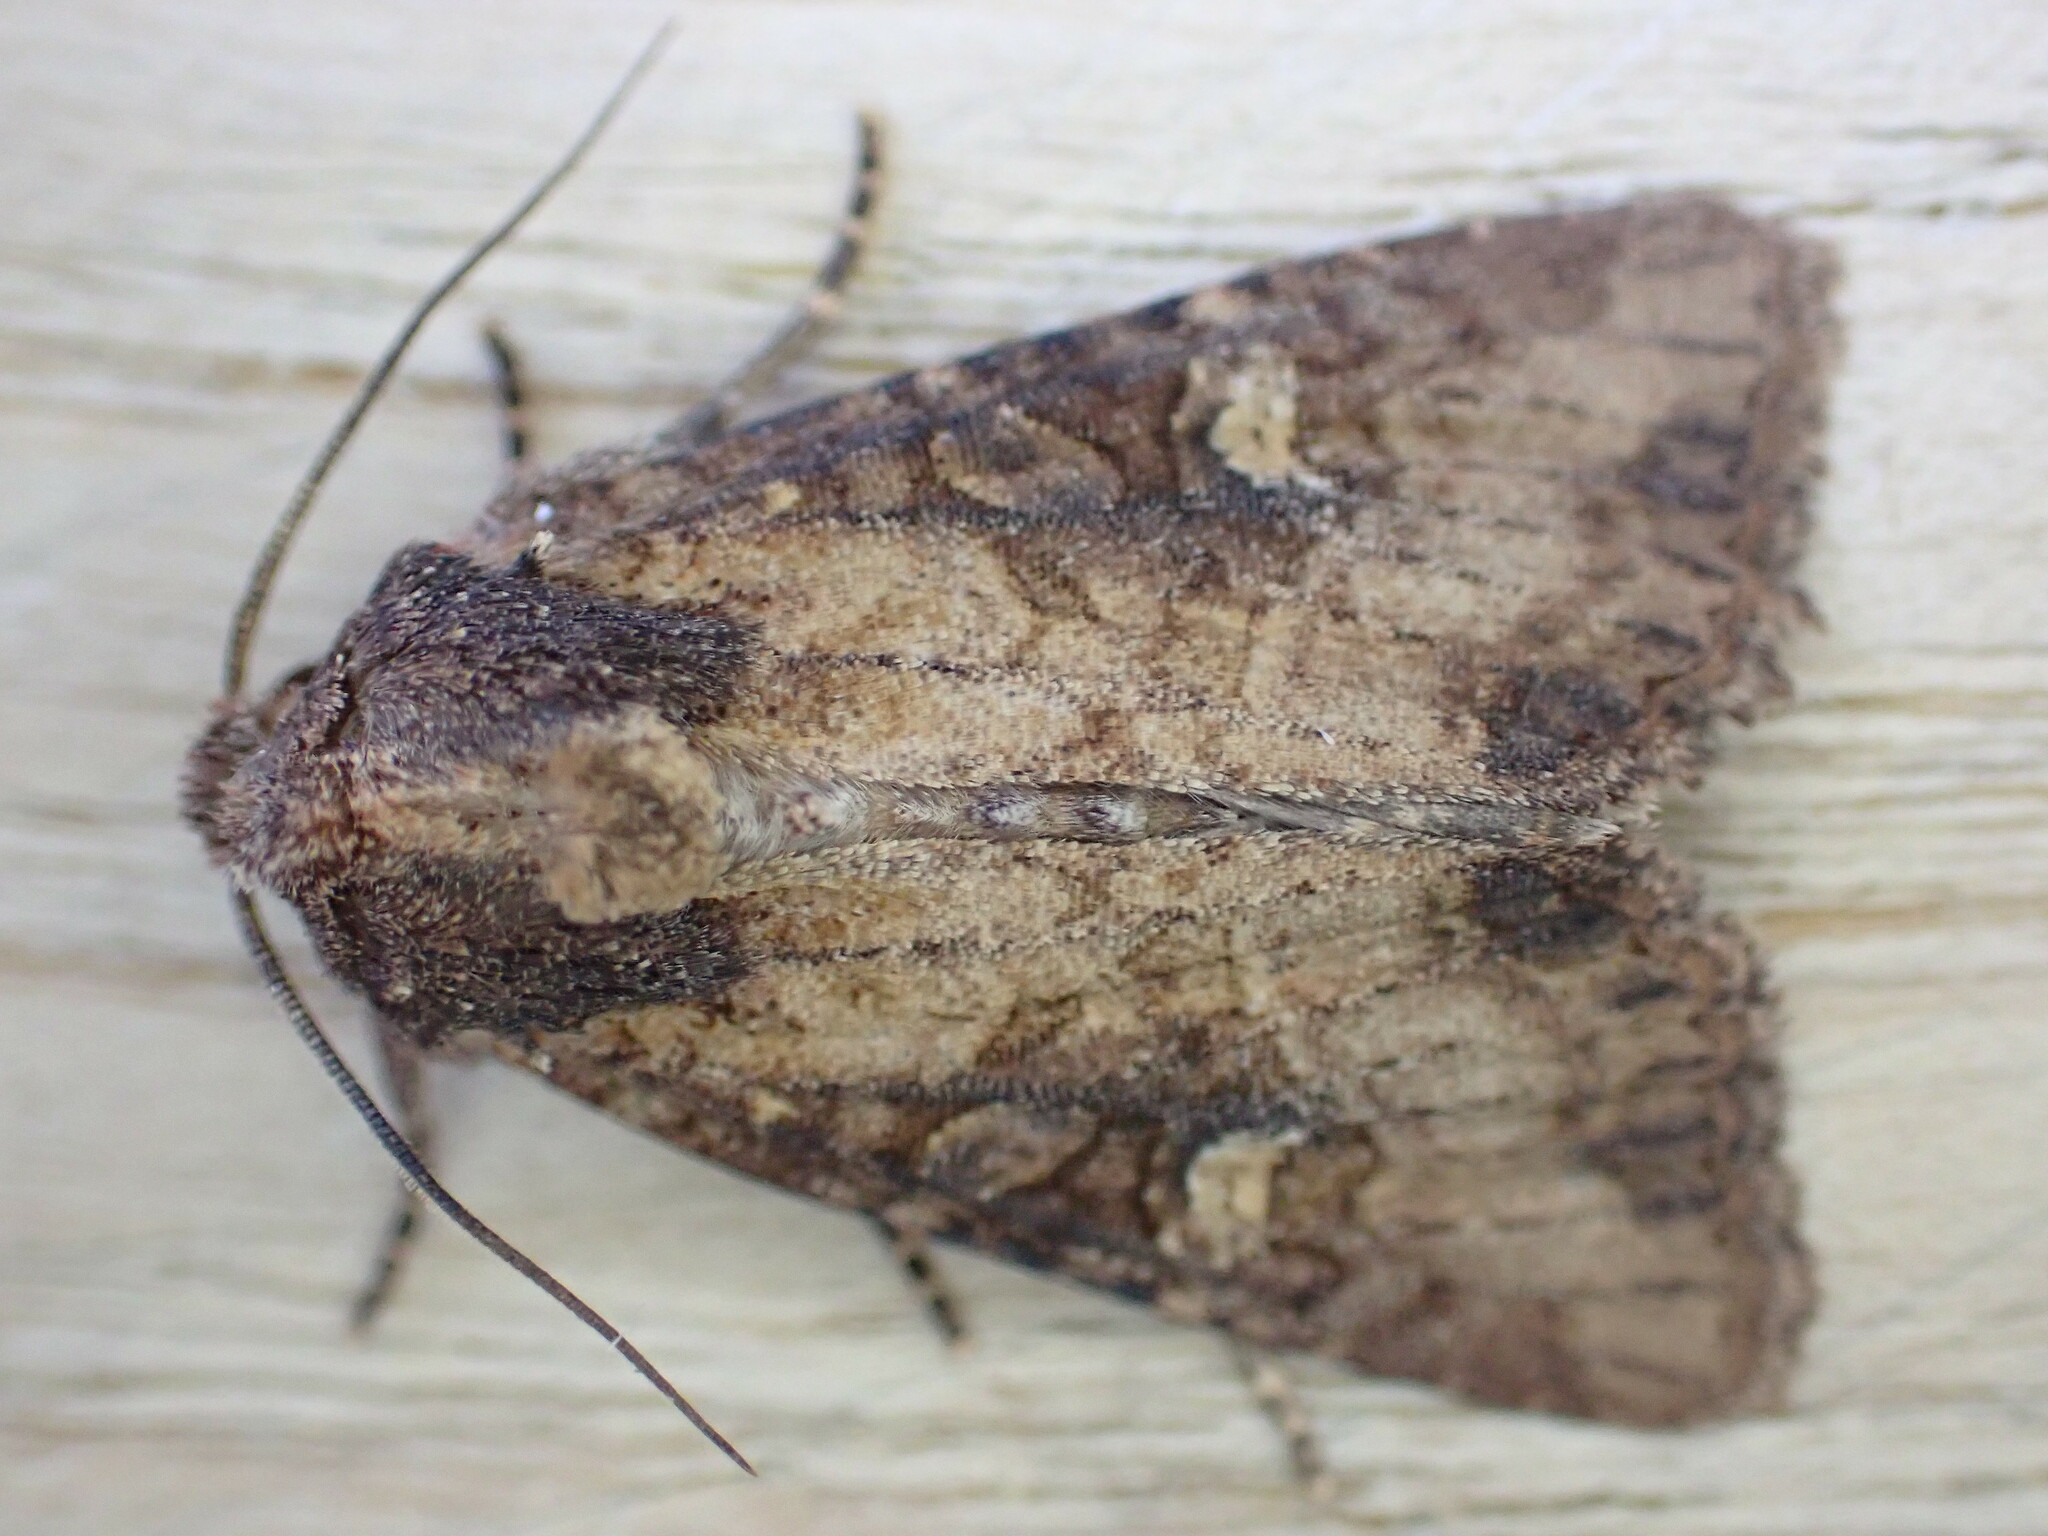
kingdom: Animalia
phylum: Arthropoda
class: Insecta
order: Lepidoptera
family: Noctuidae
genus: Mesapamea
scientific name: Mesapamea
